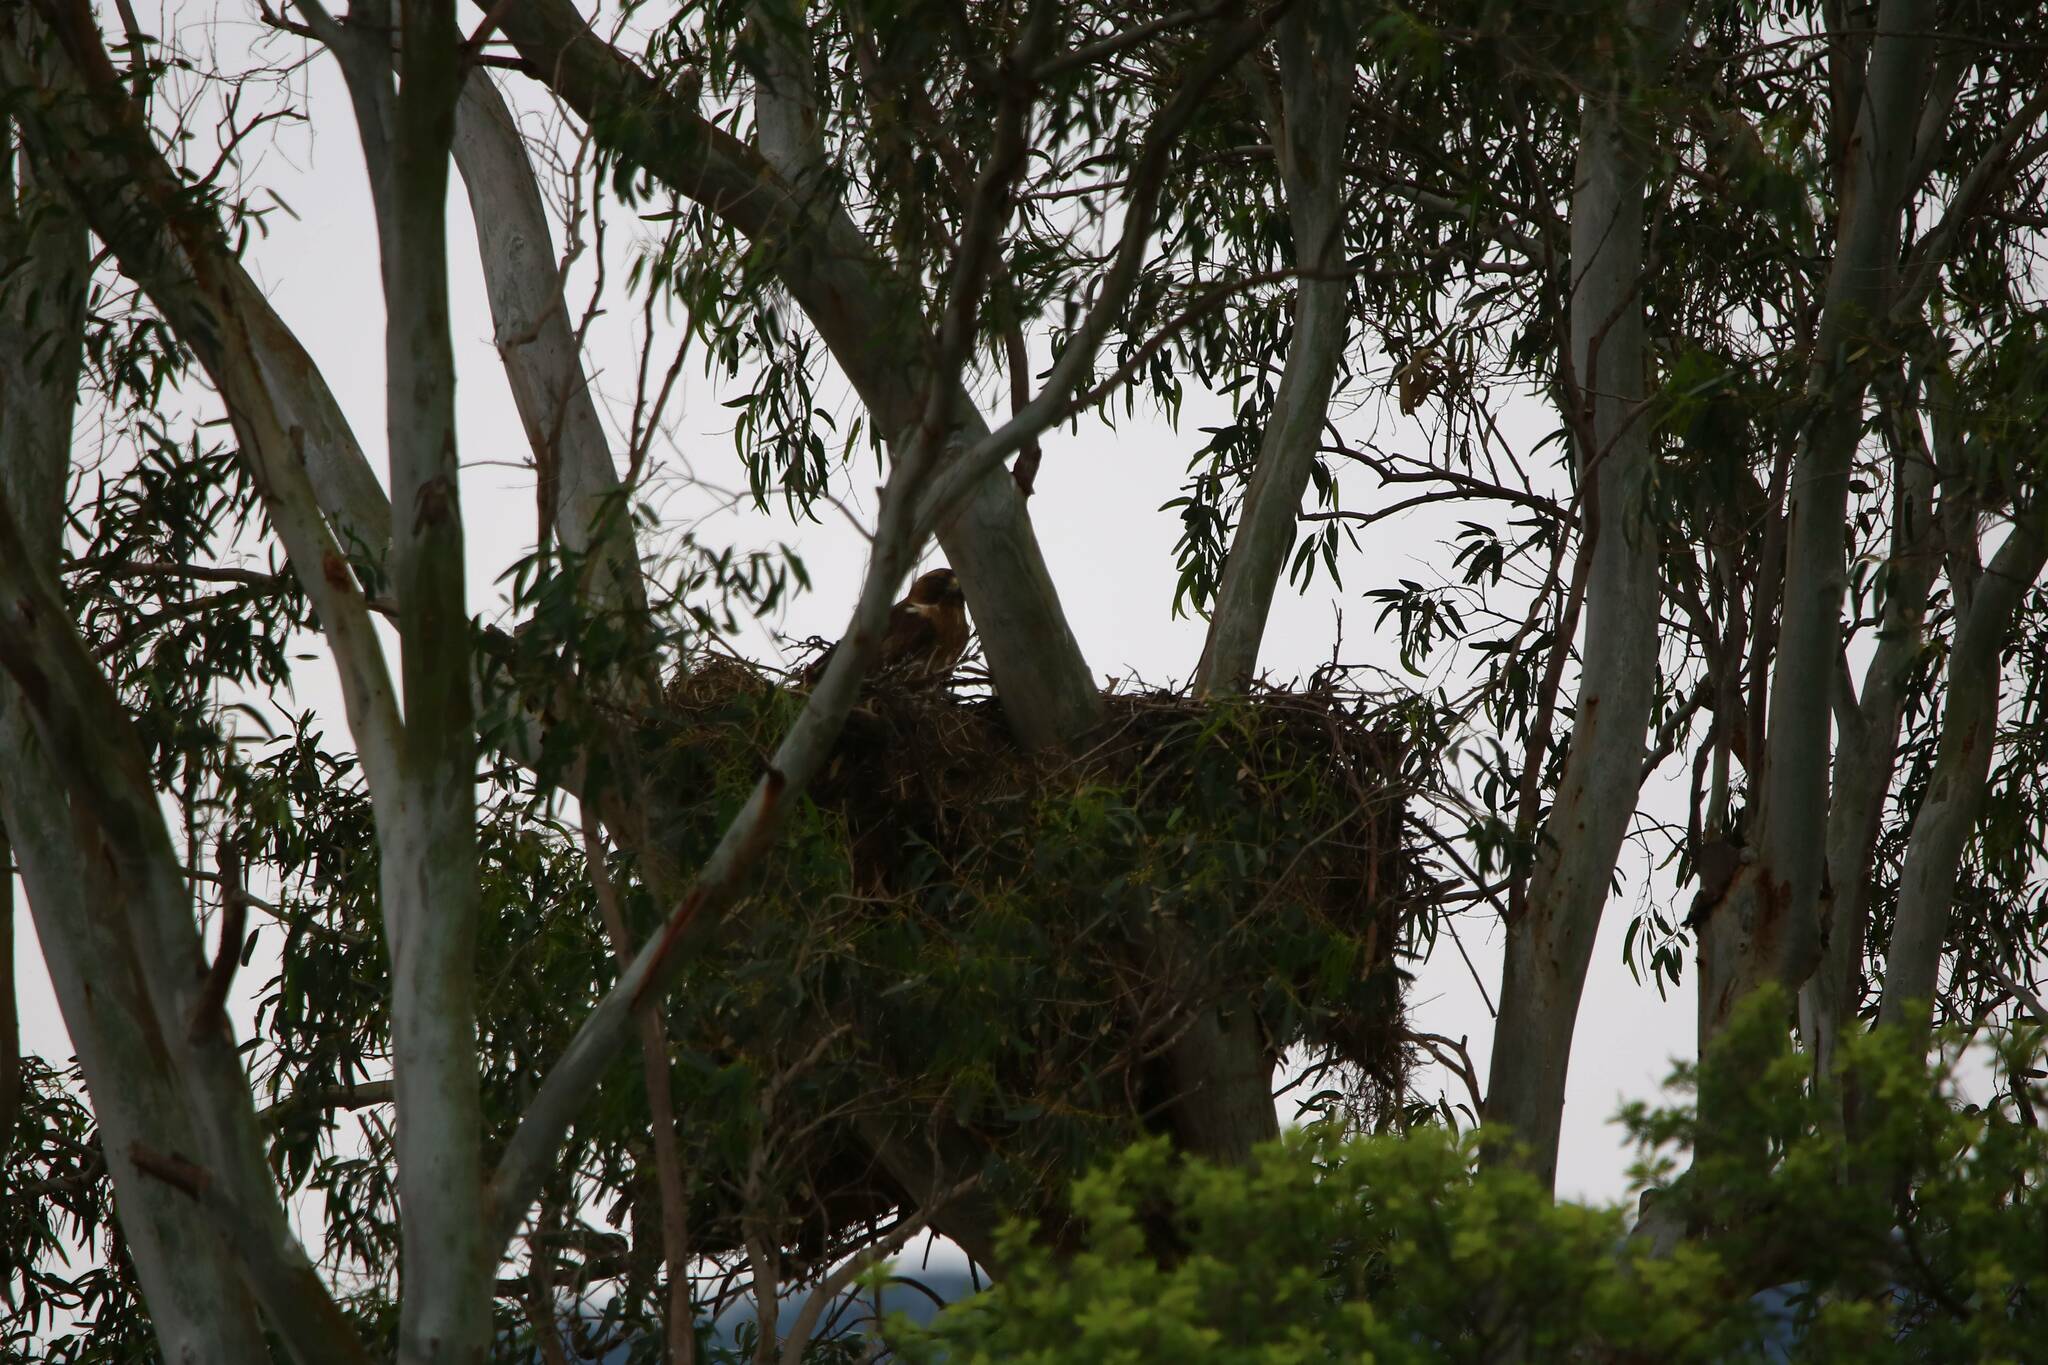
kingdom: Animalia
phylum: Chordata
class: Aves
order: Accipitriformes
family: Accipitridae
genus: Hieraaetus
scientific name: Hieraaetus pennatus
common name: Booted eagle
